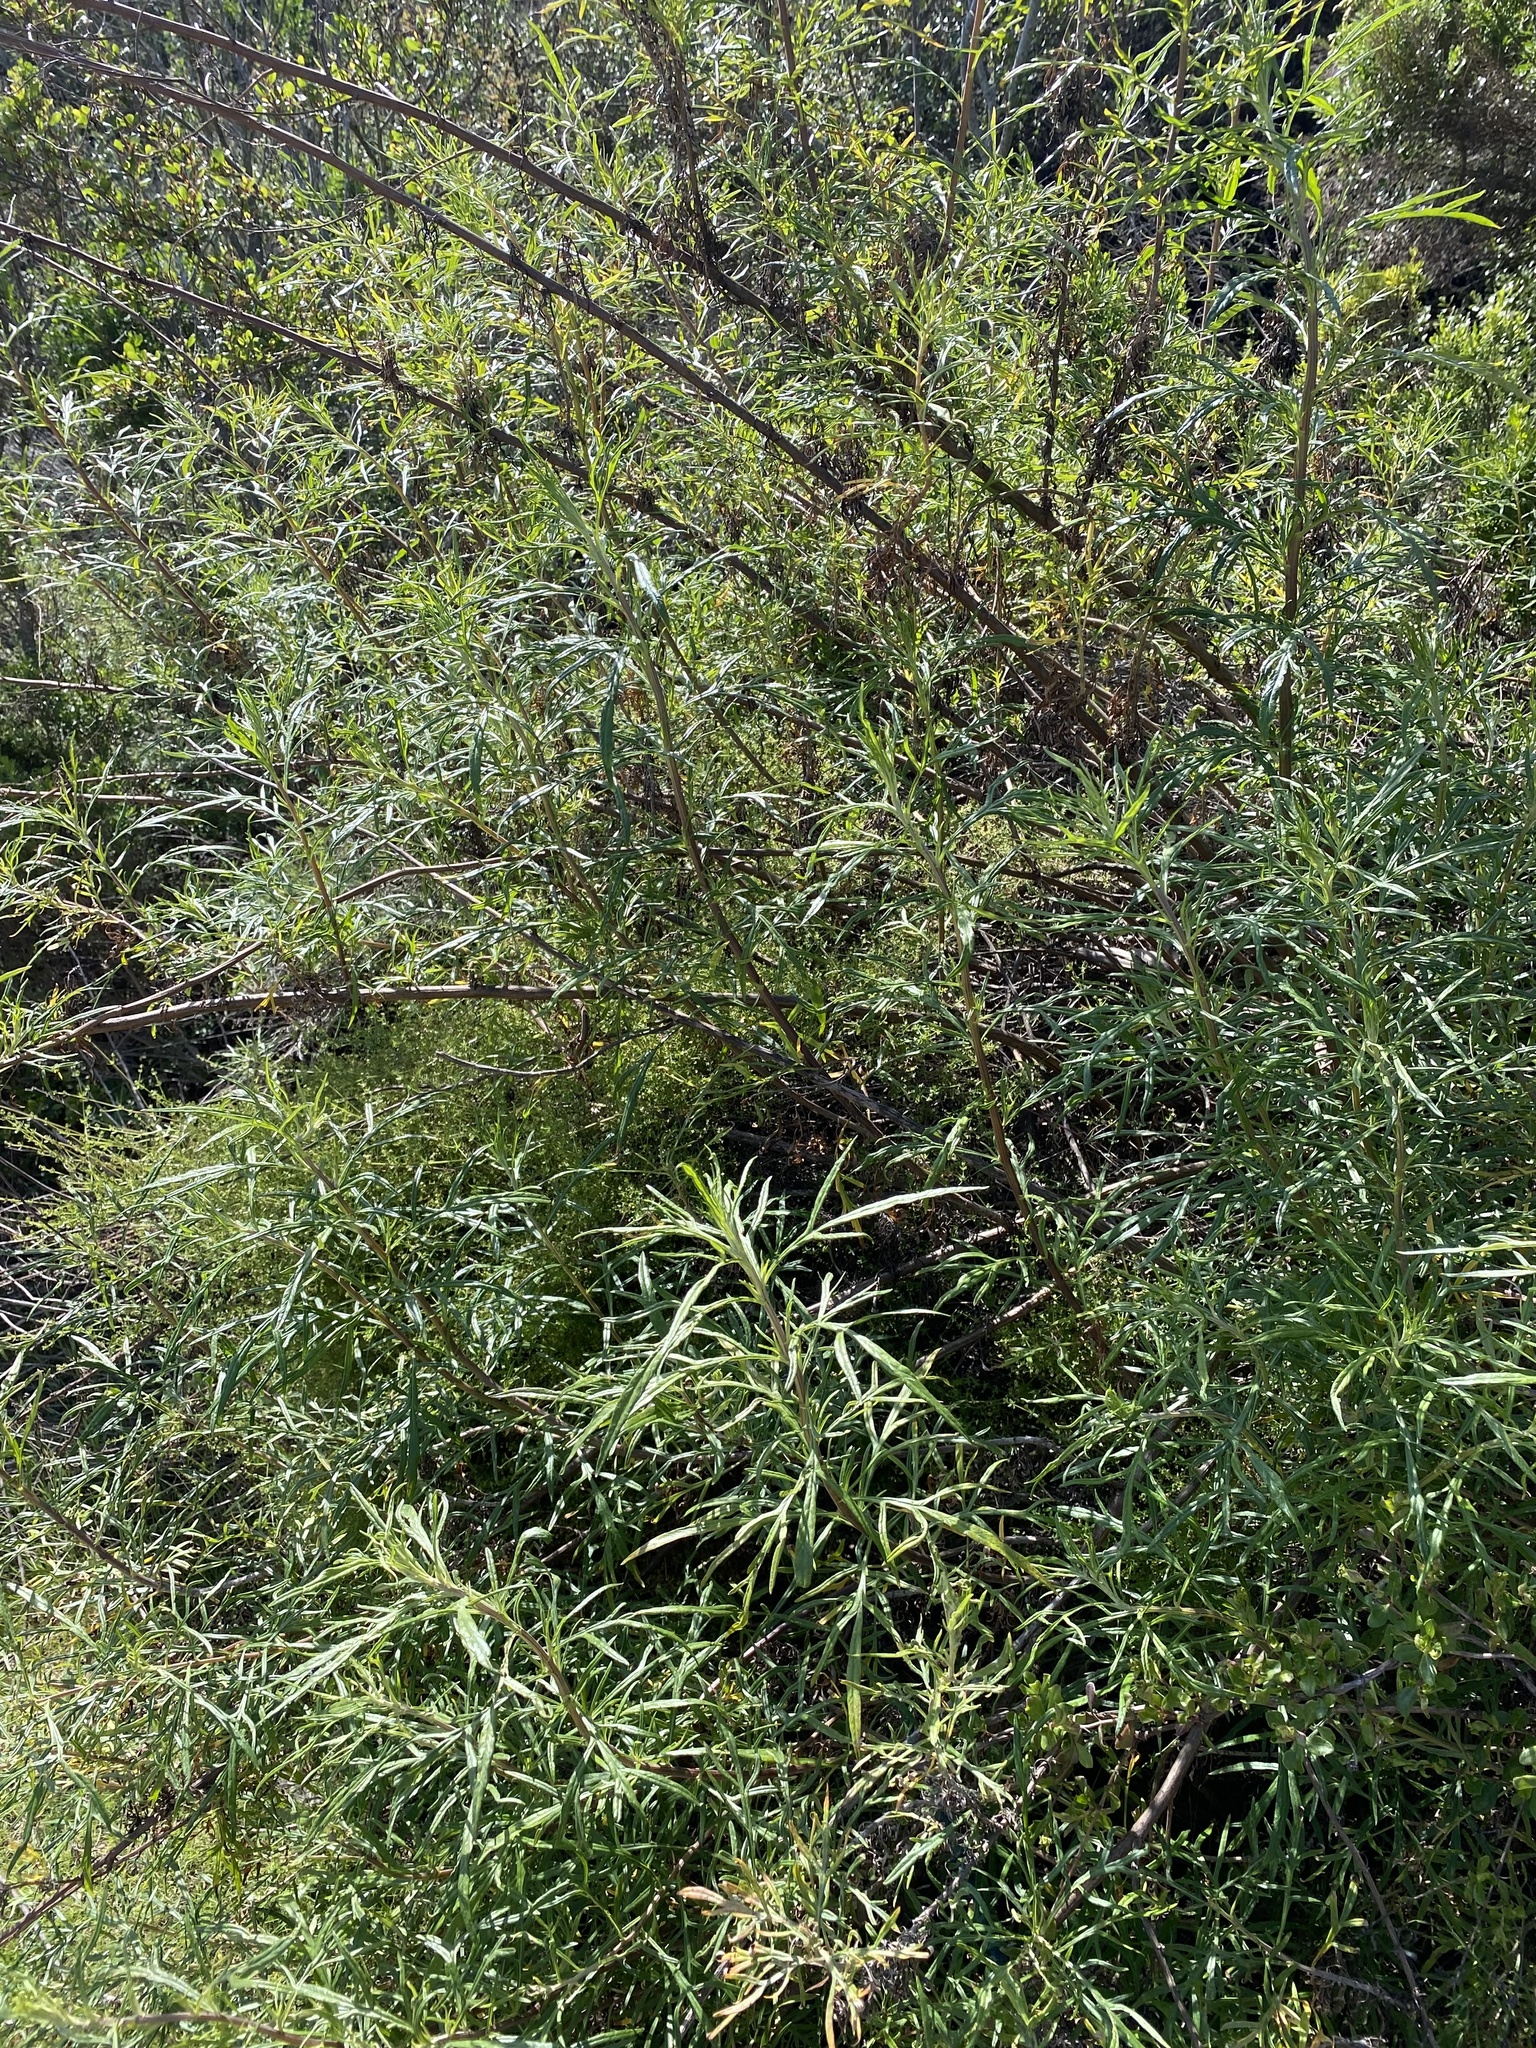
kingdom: Plantae
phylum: Tracheophyta
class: Magnoliopsida
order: Asterales
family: Asteraceae
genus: Artemisia
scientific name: Artemisia palmeri
